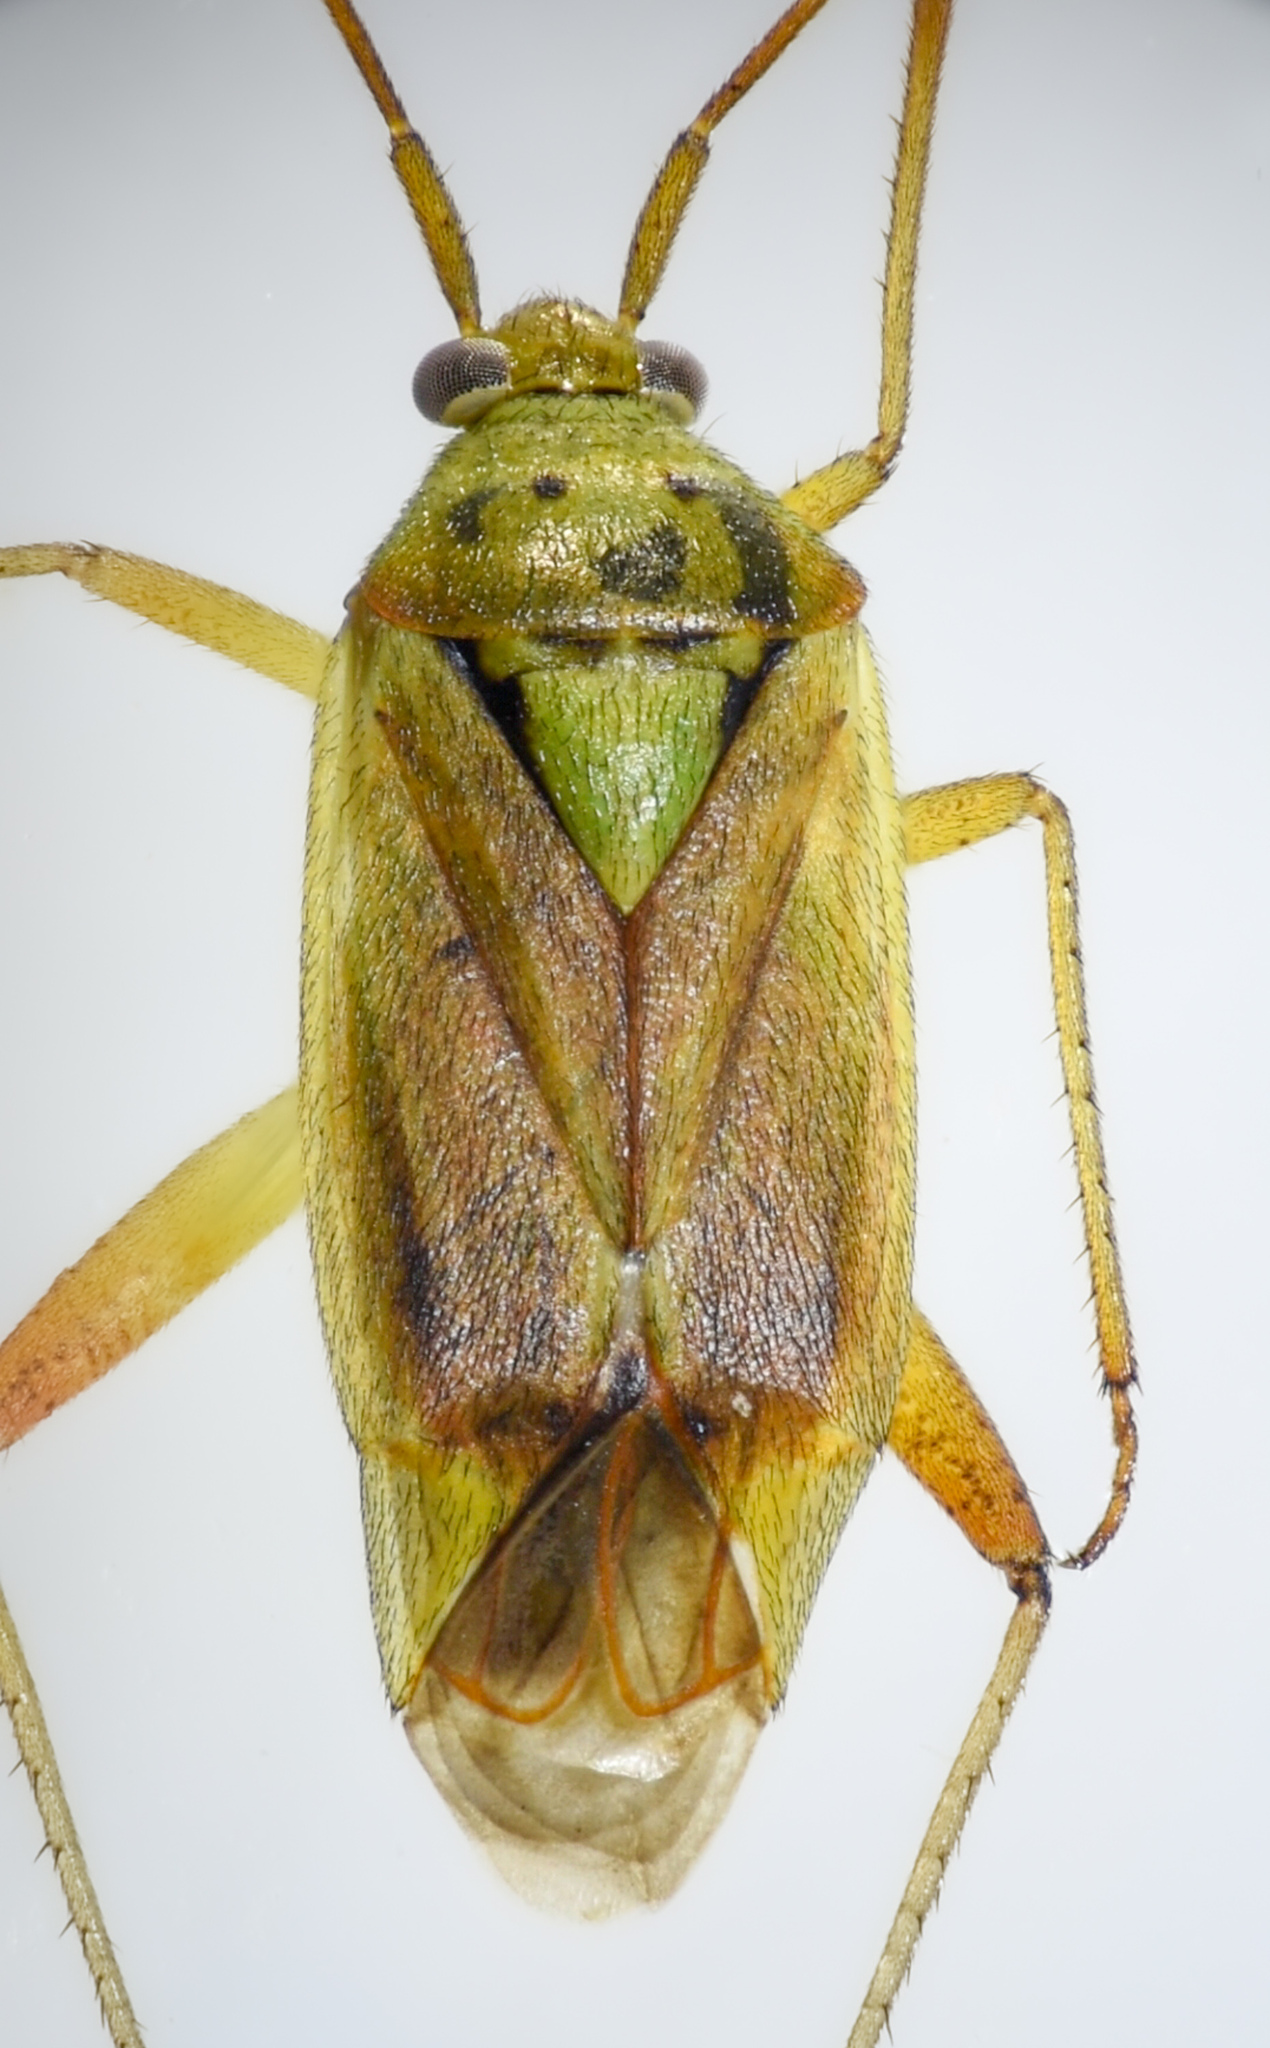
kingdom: Animalia
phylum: Arthropoda
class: Insecta
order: Hemiptera
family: Miridae
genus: Closterotomus
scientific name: Closterotomus norvegicus
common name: Plant bug
